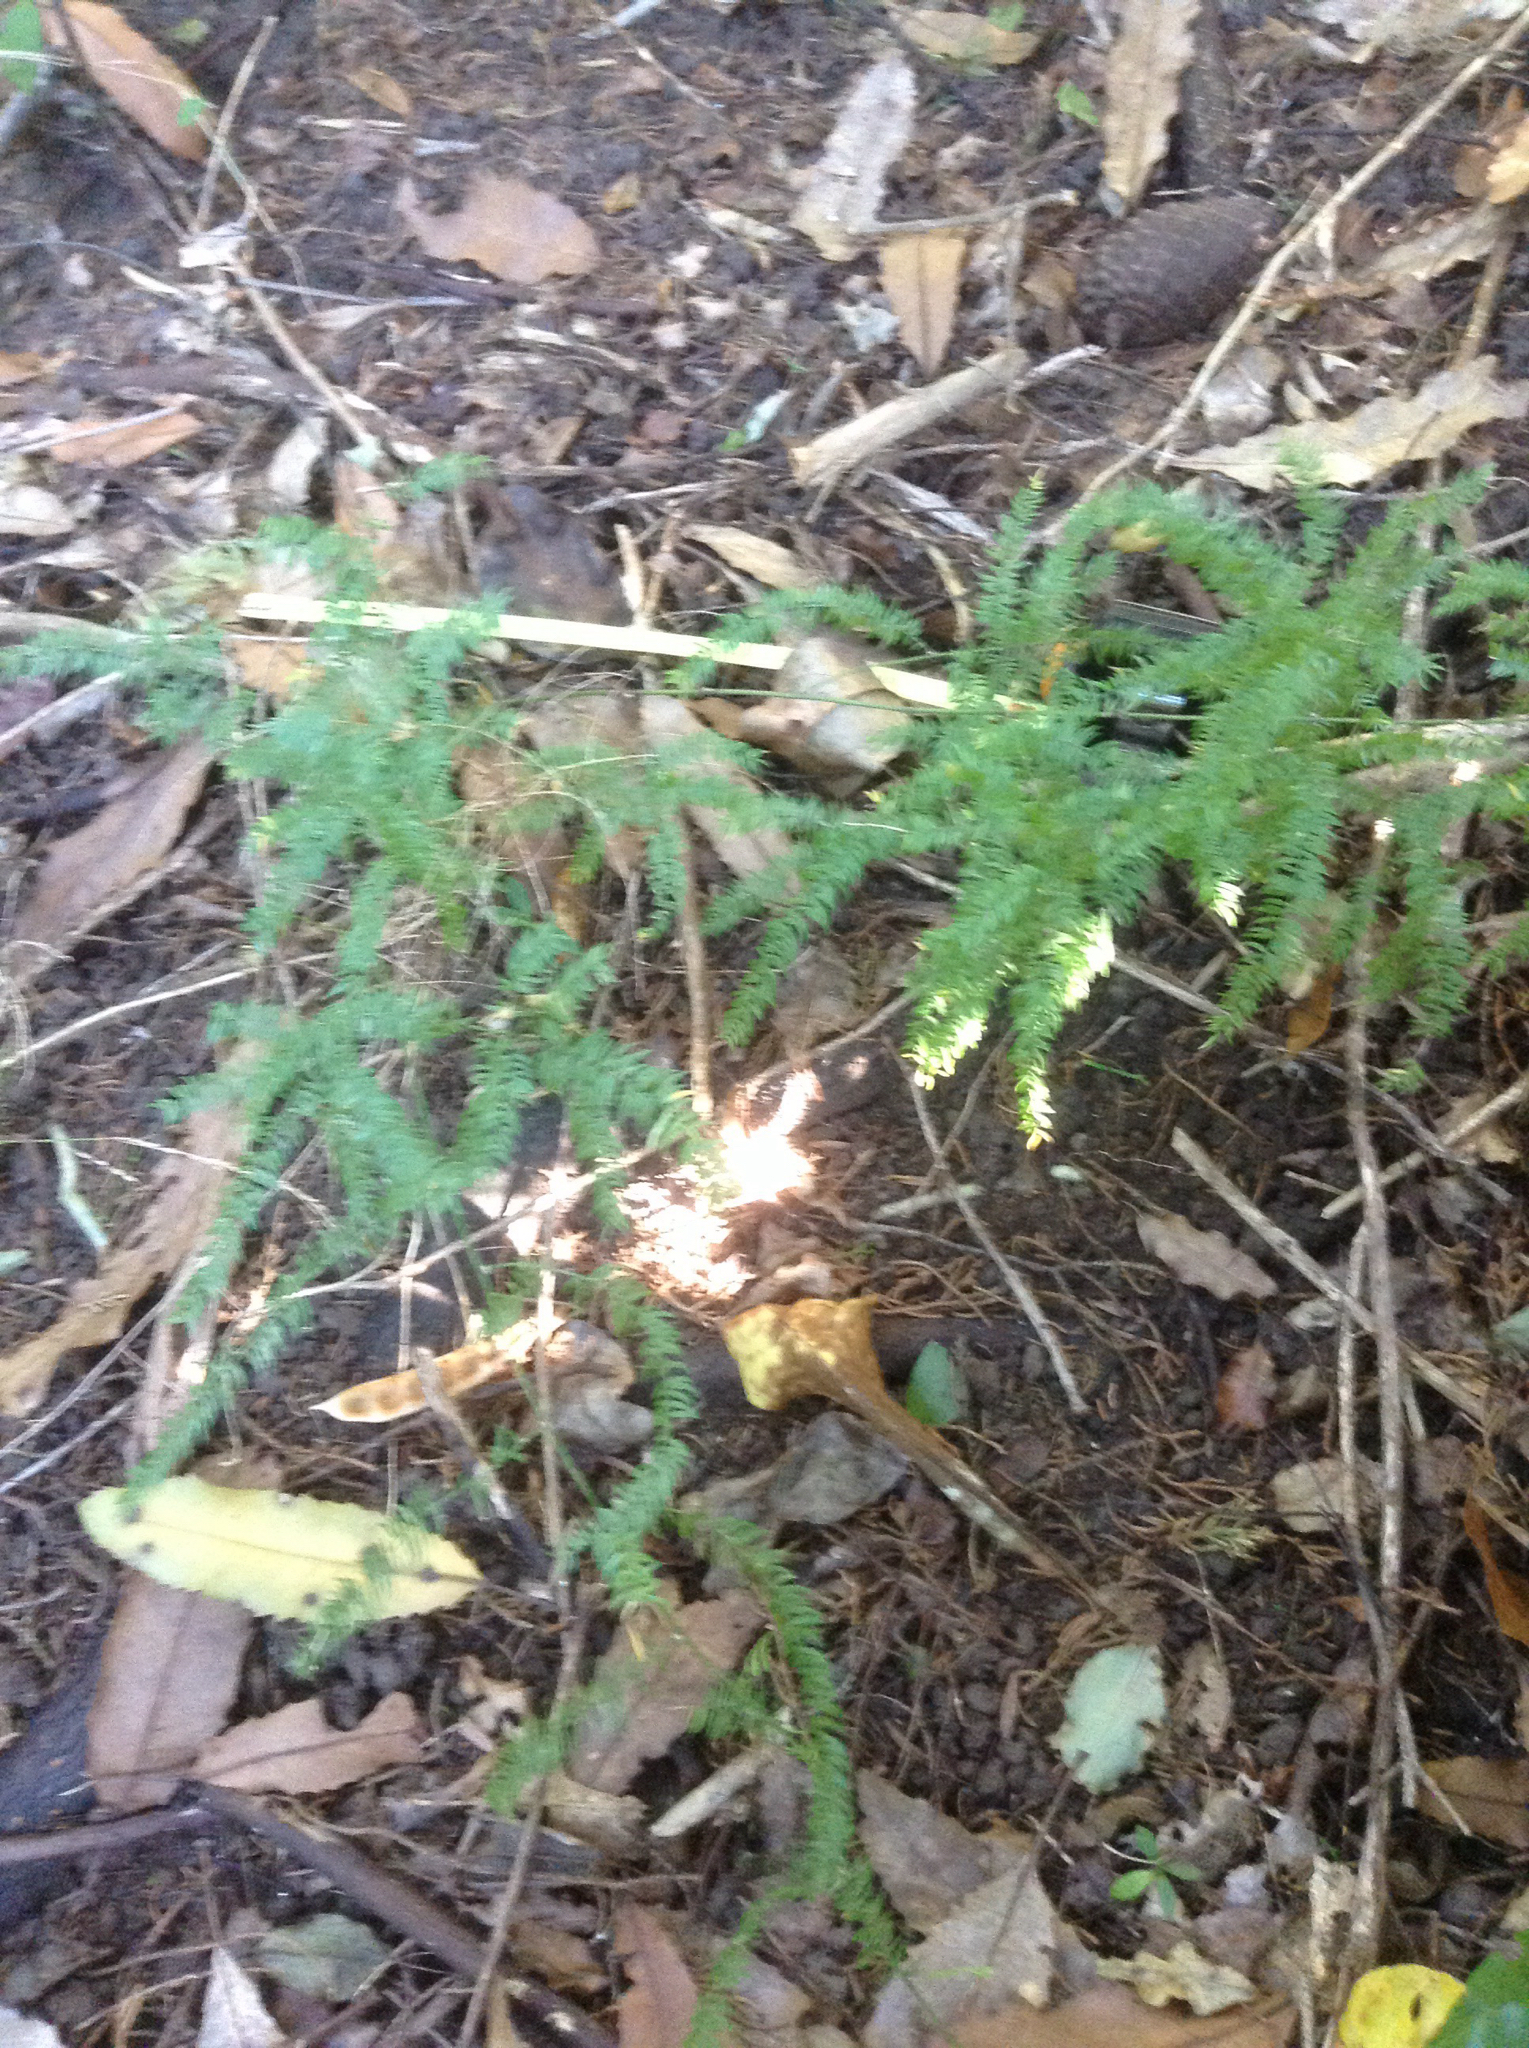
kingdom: Plantae
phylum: Tracheophyta
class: Liliopsida
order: Asparagales
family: Asparagaceae
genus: Asparagus
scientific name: Asparagus scandens
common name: Asparagus-fern
